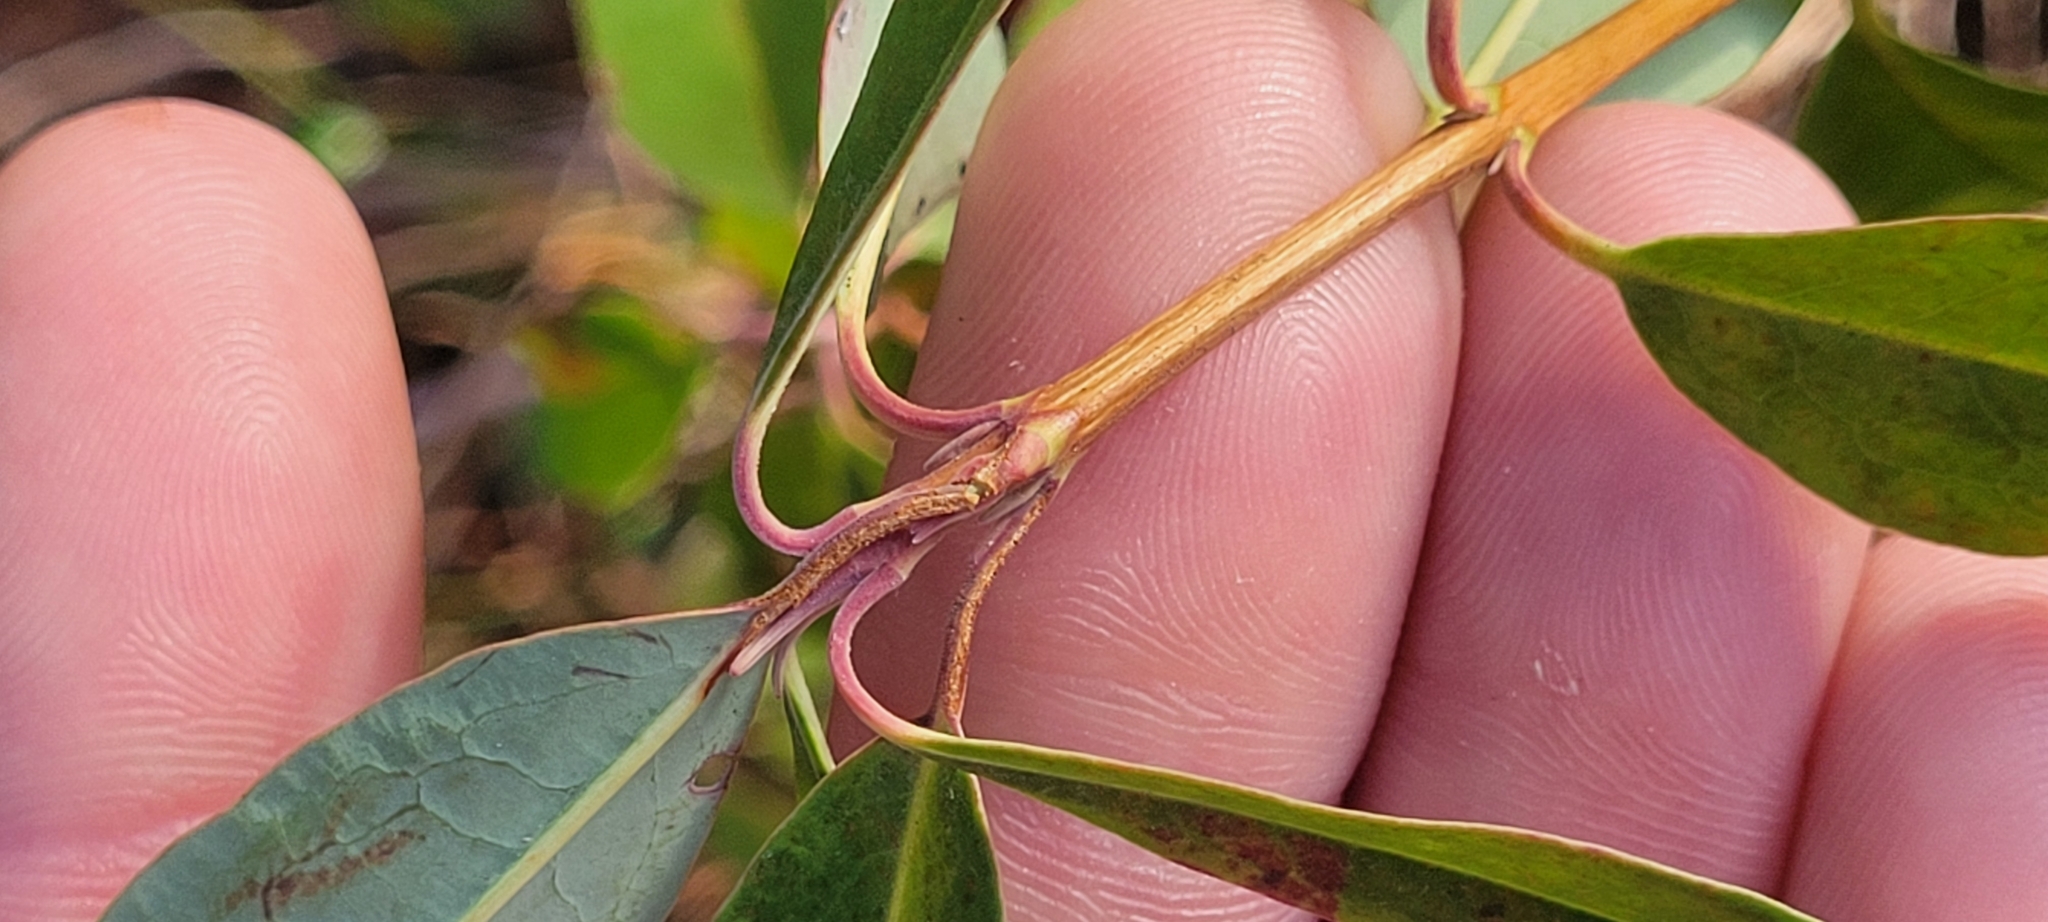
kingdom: Plantae
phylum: Tracheophyta
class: Magnoliopsida
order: Ericales
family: Ericaceae
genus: Kalmia
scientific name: Kalmia angustifolia
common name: Sheep-laurel
